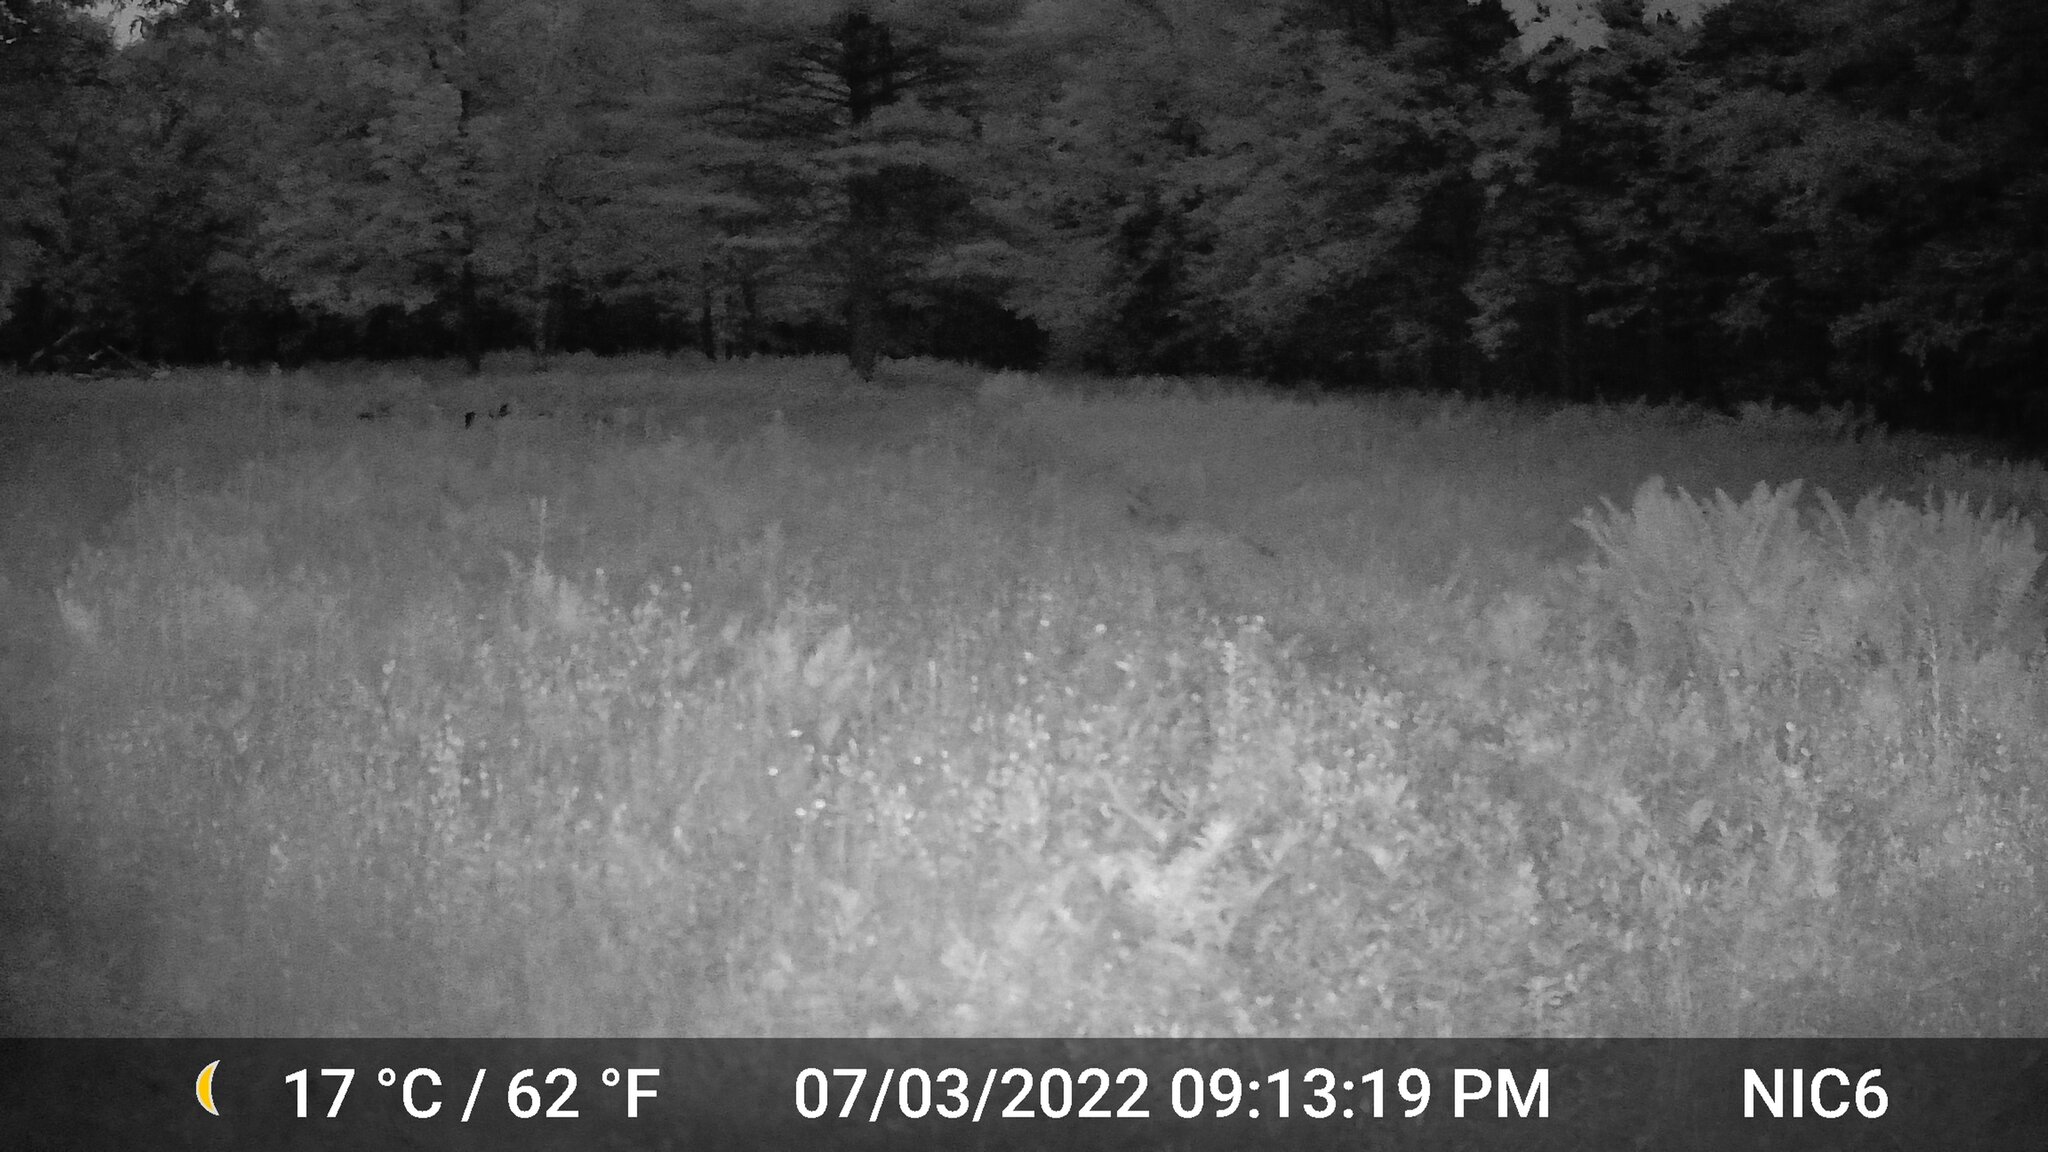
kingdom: Animalia
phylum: Chordata
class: Mammalia
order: Carnivora
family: Canidae
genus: Canis
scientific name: Canis latrans
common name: Coyote
